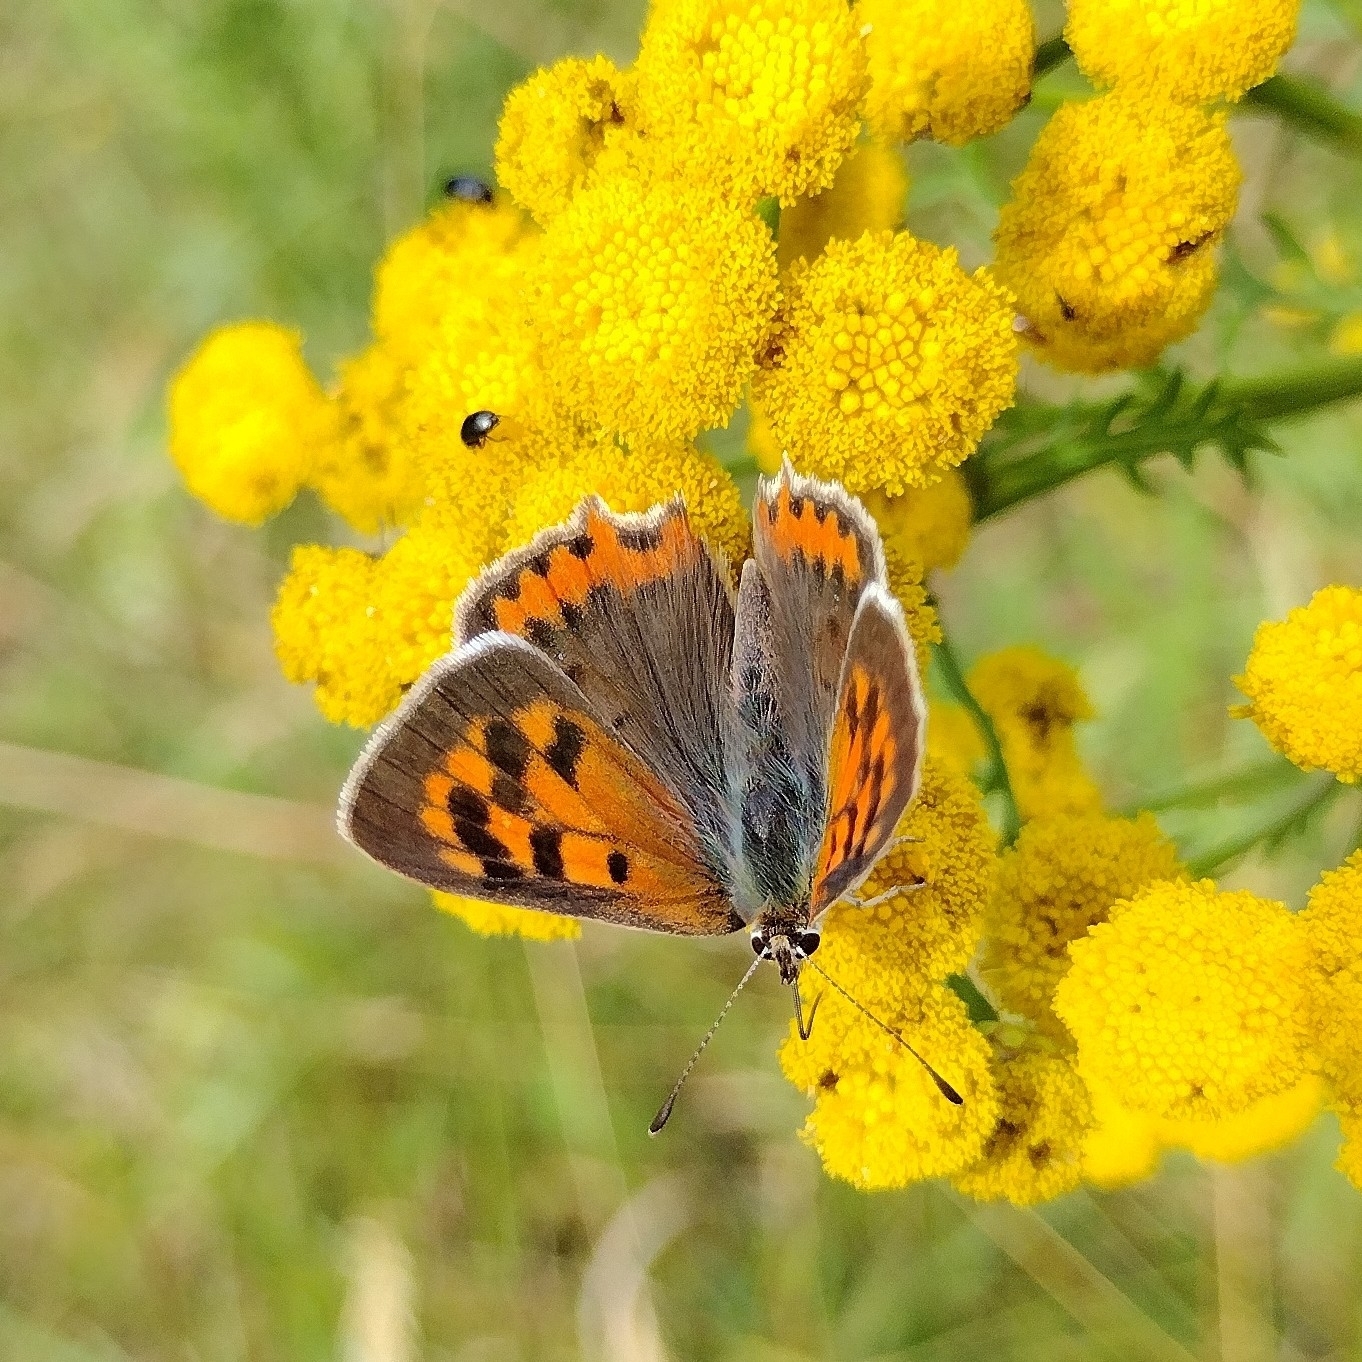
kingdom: Animalia
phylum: Arthropoda
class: Insecta
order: Lepidoptera
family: Lycaenidae
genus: Lycaena
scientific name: Lycaena phlaeas
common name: Small copper
